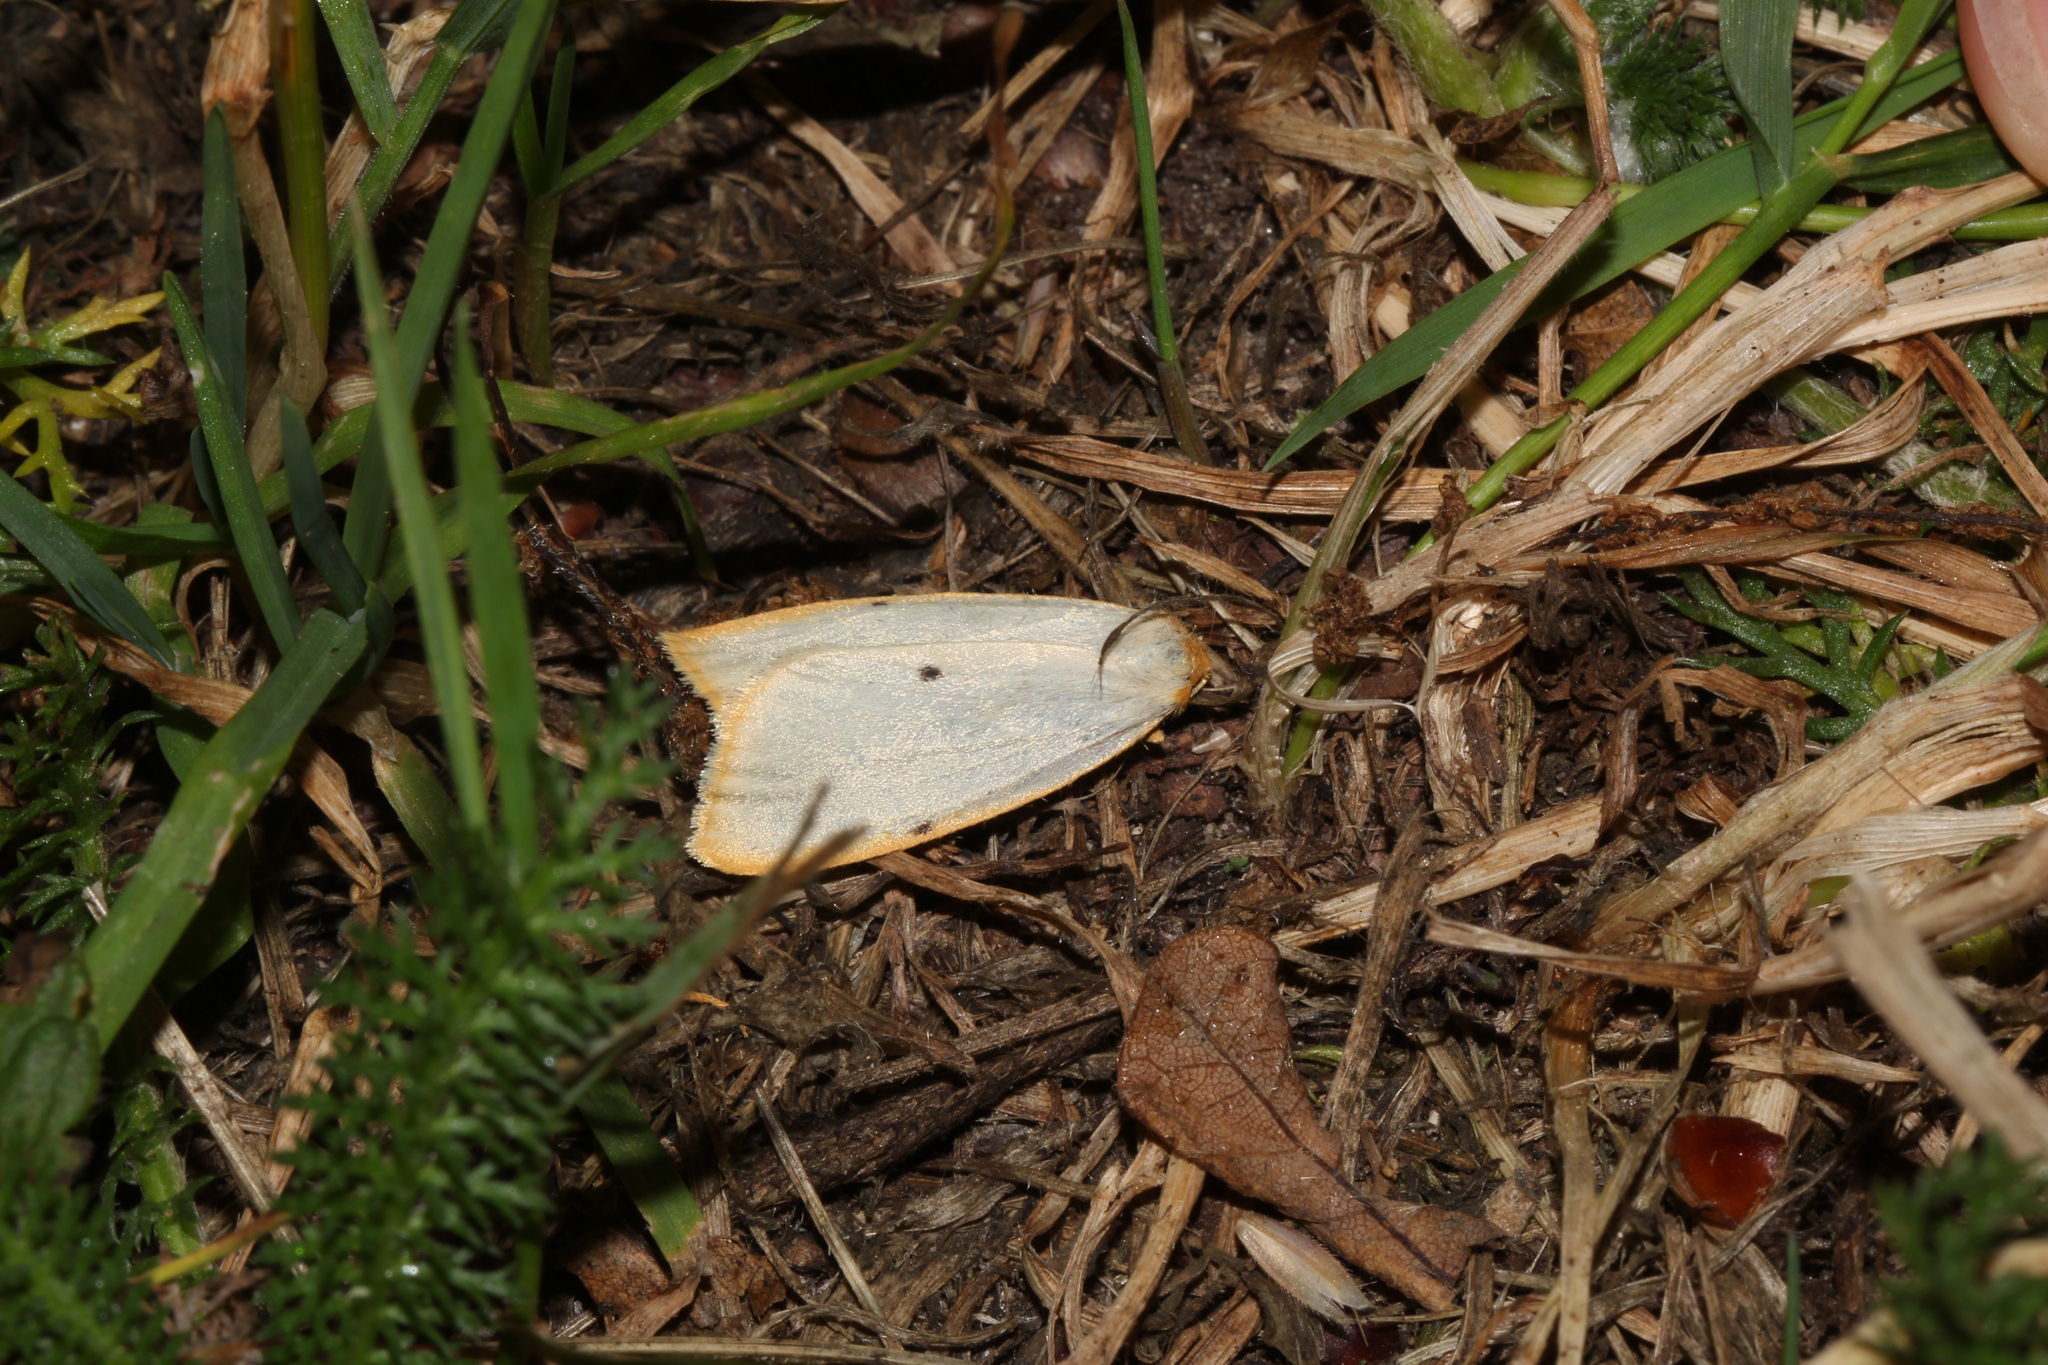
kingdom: Animalia
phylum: Arthropoda
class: Insecta
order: Lepidoptera
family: Erebidae
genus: Cybosia
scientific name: Cybosia mesomella
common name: Four-dotted footman
